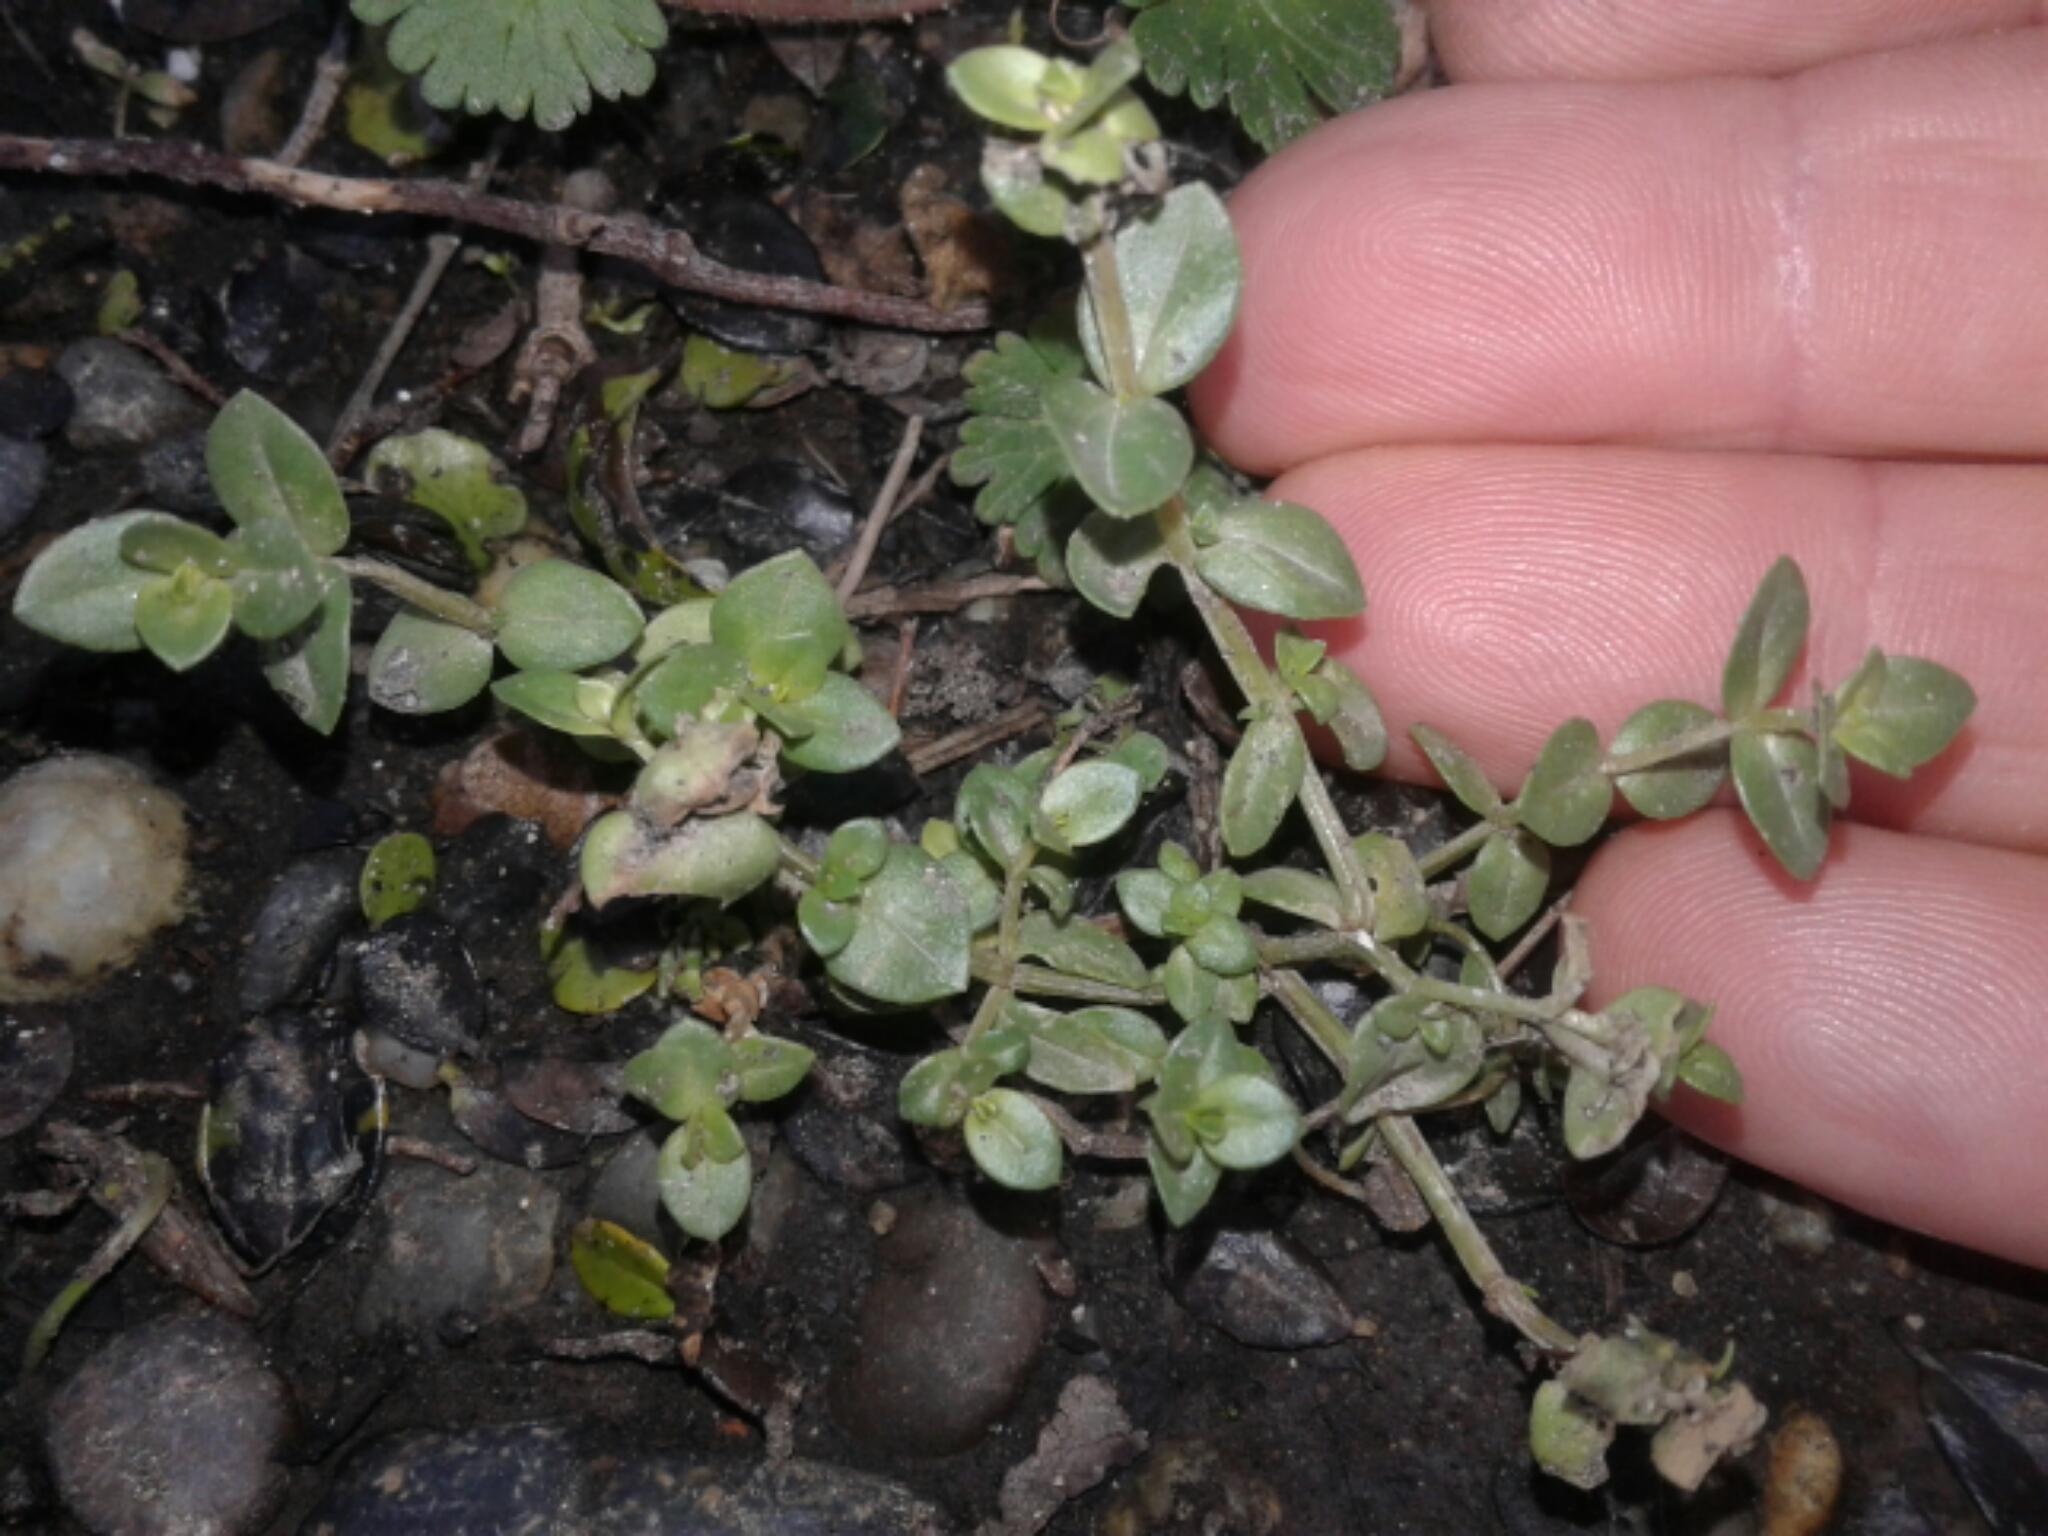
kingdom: Plantae
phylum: Tracheophyta
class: Magnoliopsida
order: Ericales
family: Primulaceae
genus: Lysimachia
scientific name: Lysimachia arvensis
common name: Scarlet pimpernel
